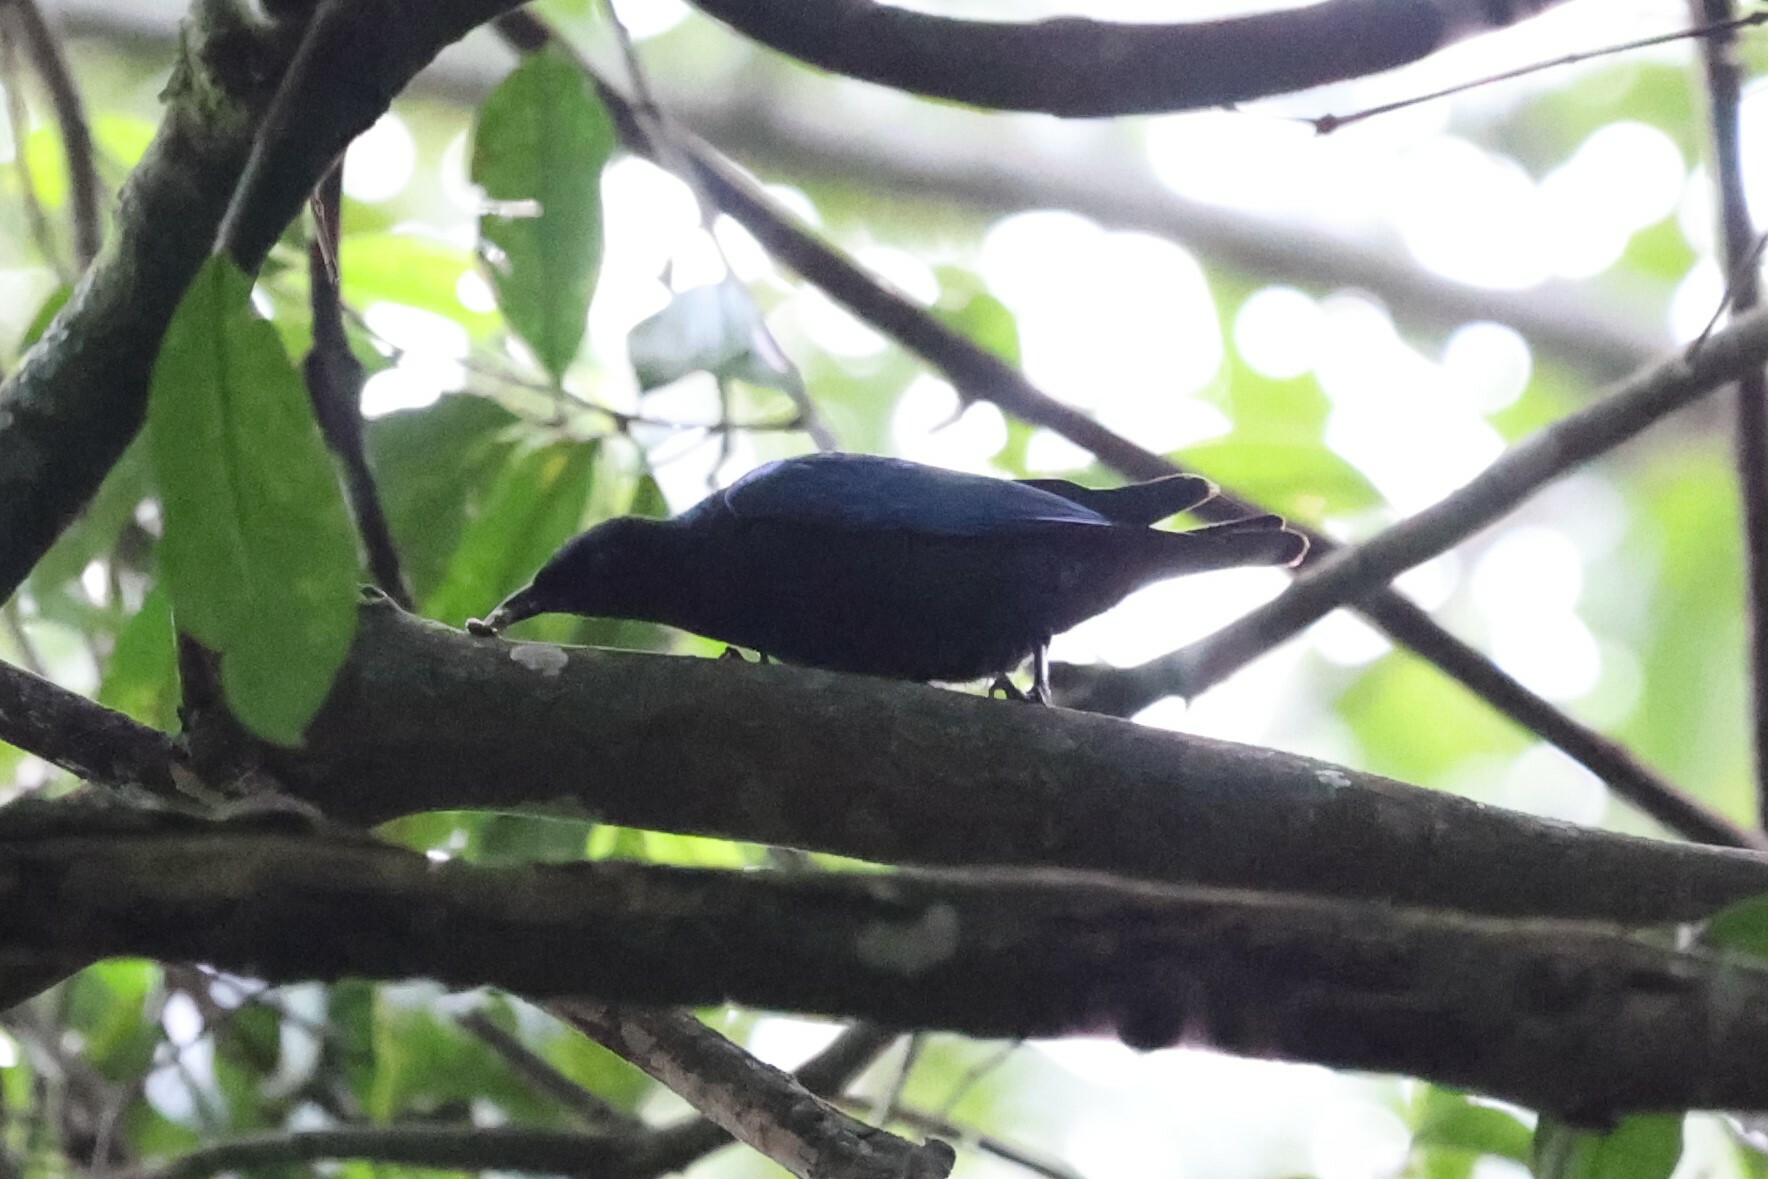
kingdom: Animalia
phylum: Chordata
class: Aves
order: Passeriformes
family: Sturnidae
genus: Hylopsar
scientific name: Hylopsar purpureiceps
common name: Purple-headed starling
